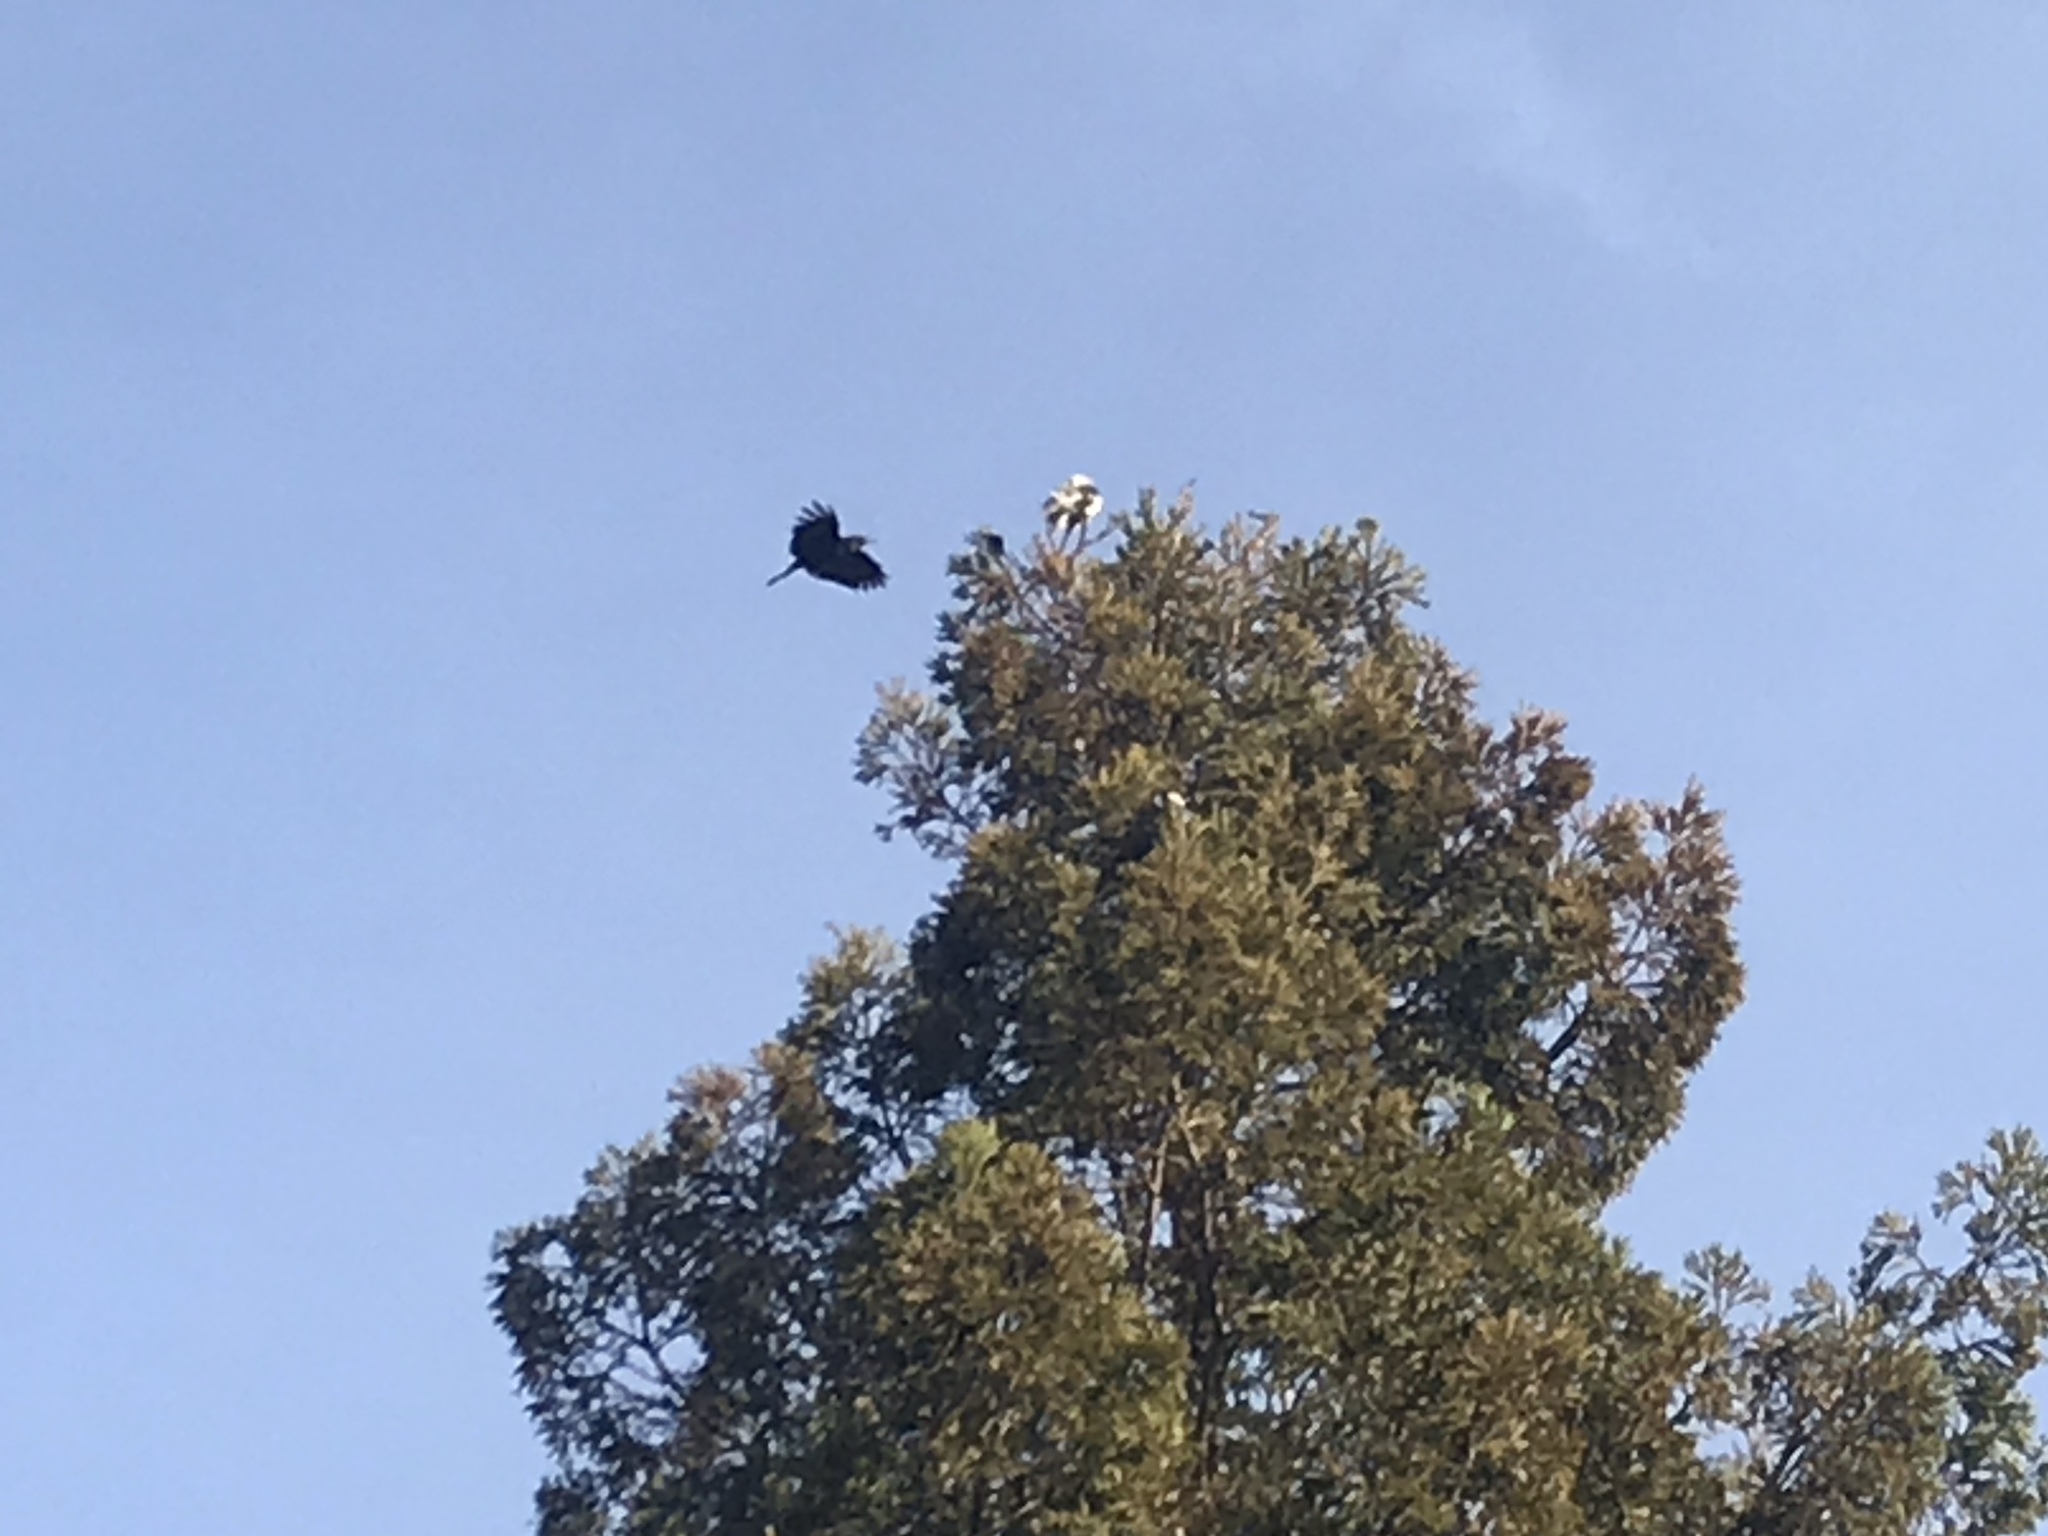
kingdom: Animalia
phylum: Chordata
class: Aves
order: Accipitriformes
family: Accipitridae
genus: Elanus
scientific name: Elanus leucurus
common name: White-tailed kite
